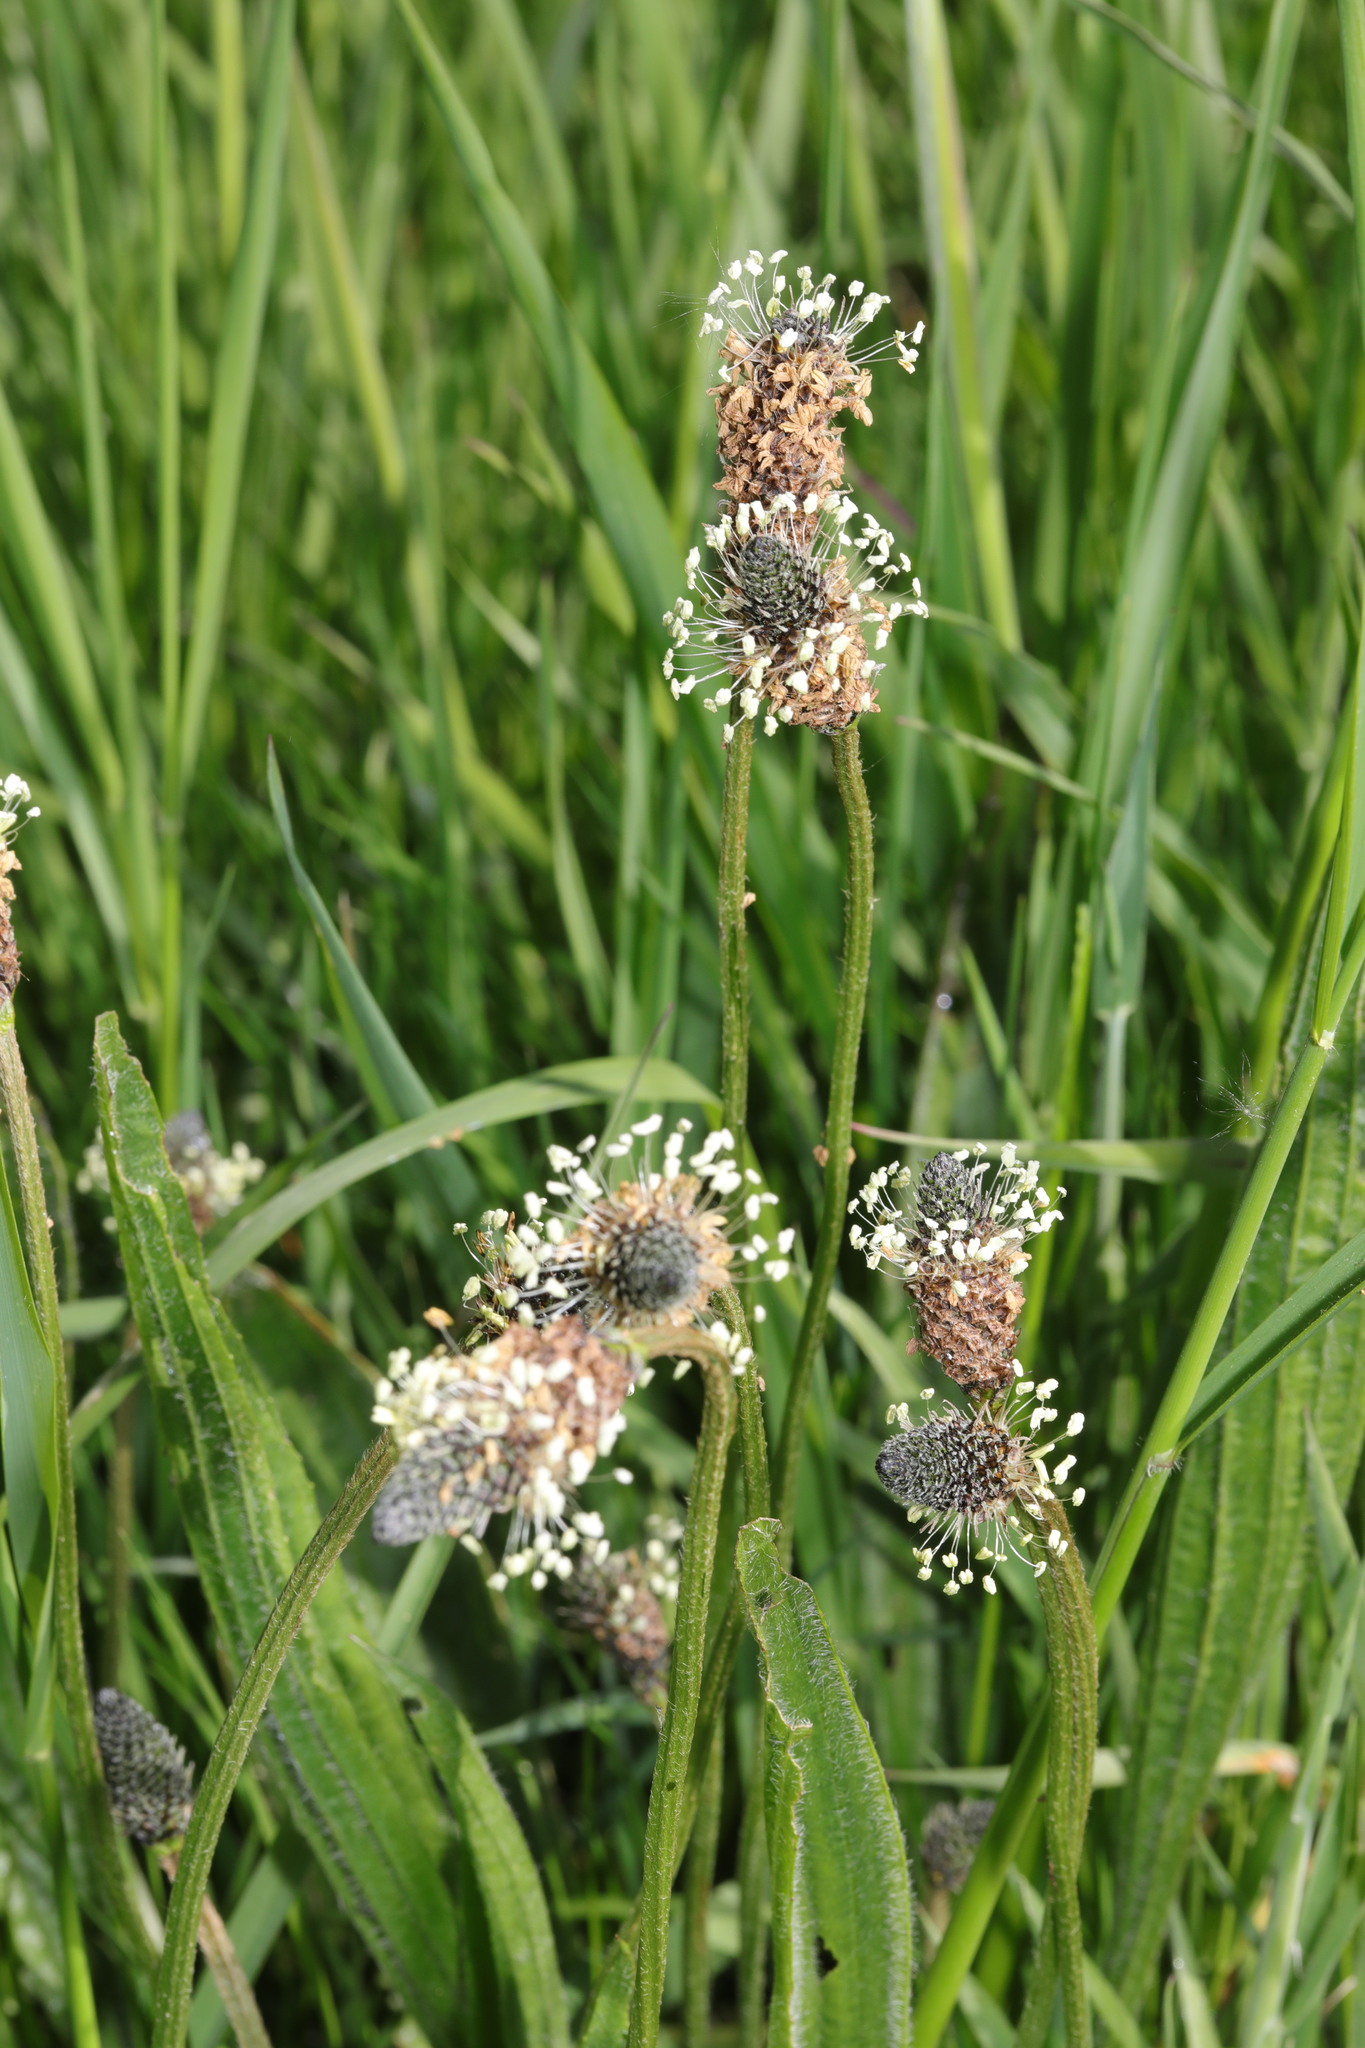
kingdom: Plantae
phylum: Tracheophyta
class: Magnoliopsida
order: Lamiales
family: Plantaginaceae
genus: Plantago
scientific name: Plantago lanceolata
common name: Ribwort plantain
